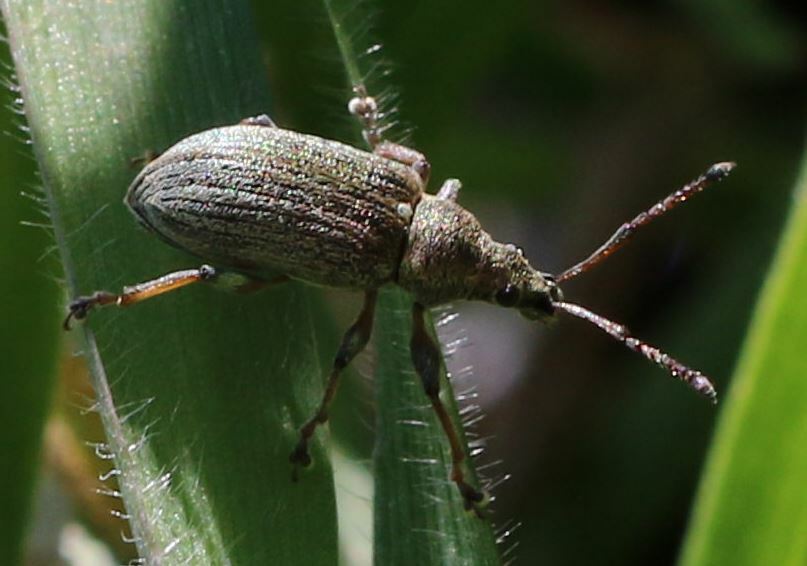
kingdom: Animalia
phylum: Arthropoda
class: Insecta
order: Coleoptera
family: Curculionidae
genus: Phyllobius
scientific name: Phyllobius pyri
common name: Common leaf weevil
